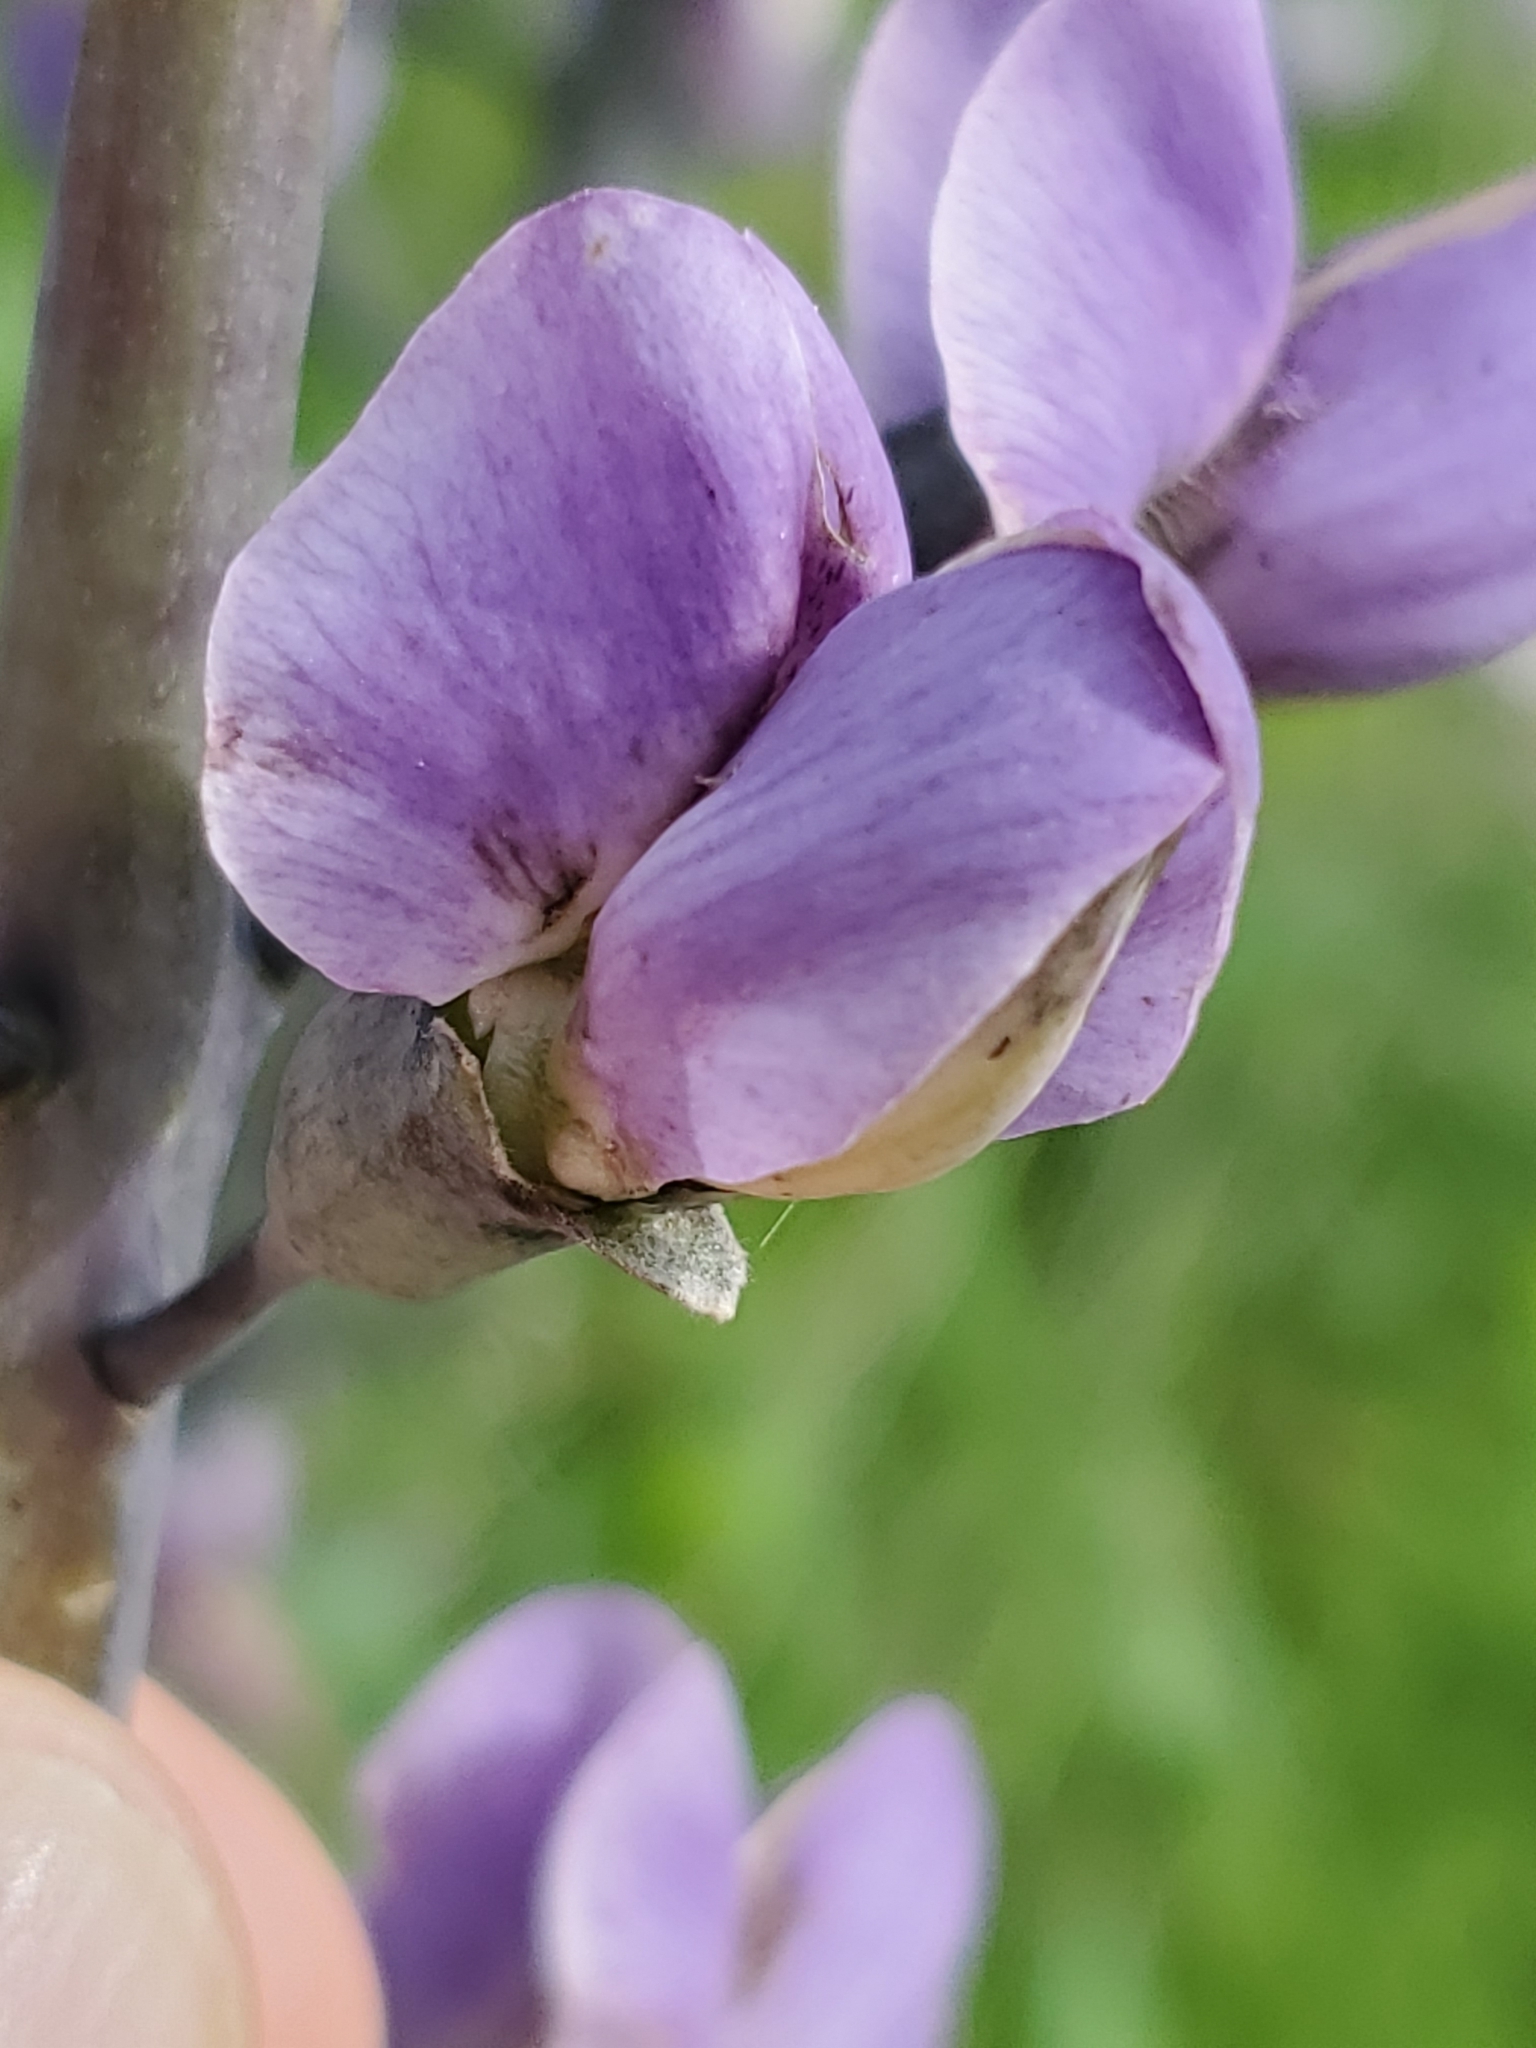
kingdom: Plantae
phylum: Tracheophyta
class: Magnoliopsida
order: Fabales
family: Fabaceae
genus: Baptisia
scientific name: Baptisia australis
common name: Blue false indigo
